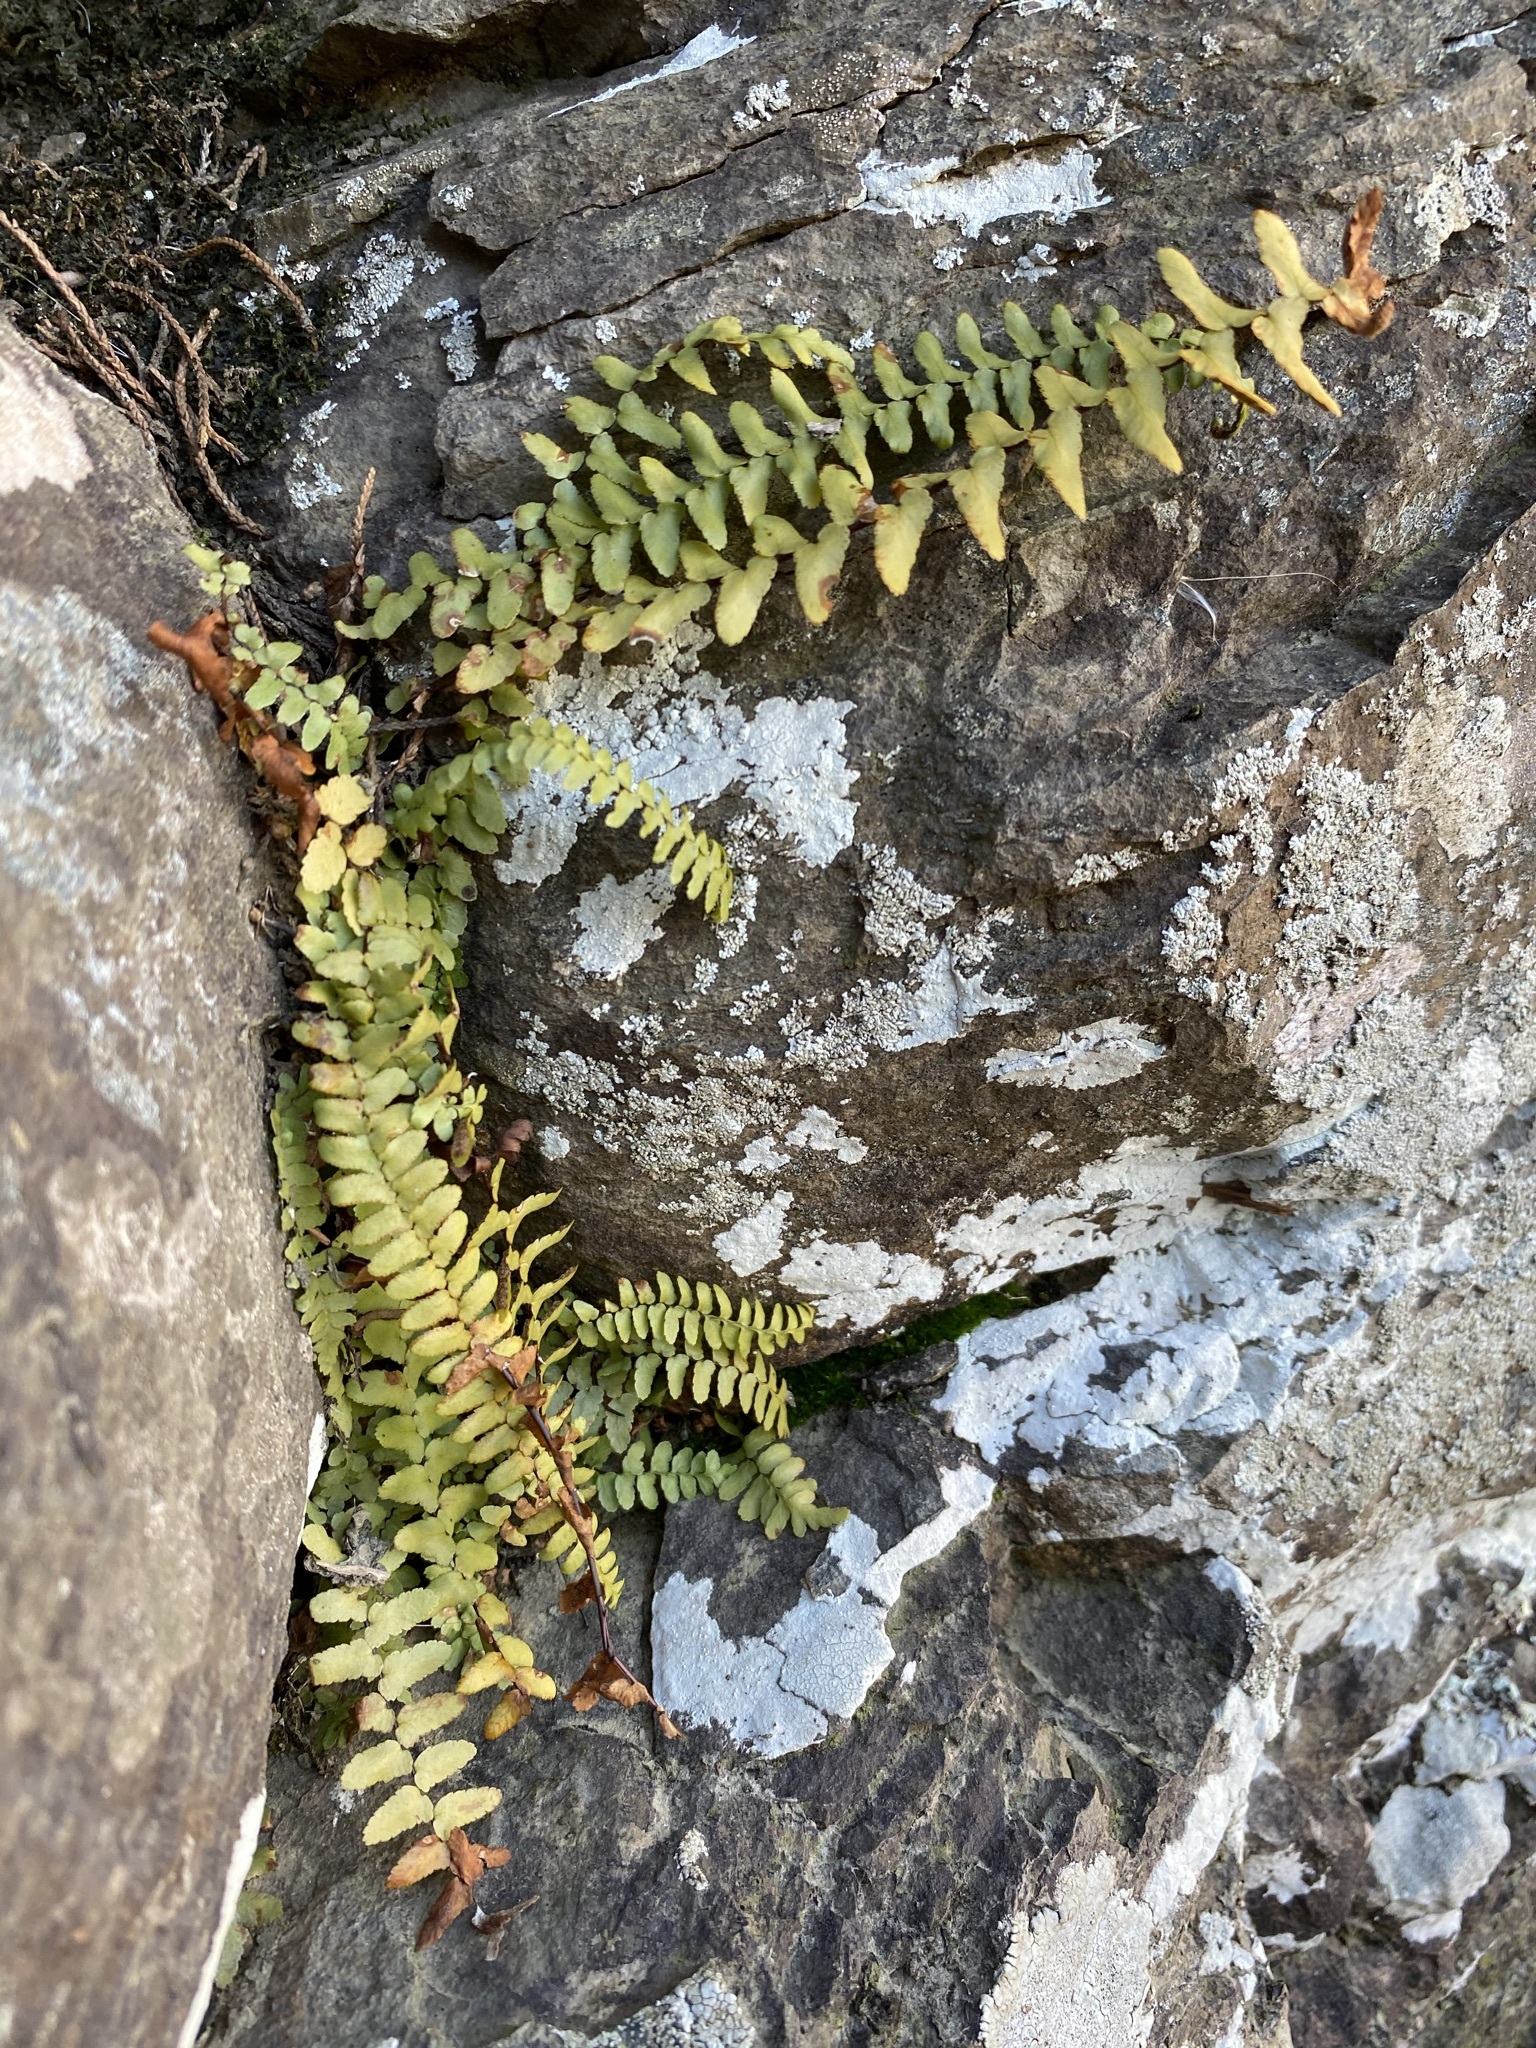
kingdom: Plantae
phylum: Tracheophyta
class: Polypodiopsida
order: Polypodiales
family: Aspleniaceae
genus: Asplenium
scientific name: Asplenium platyneuron
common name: Ebony spleenwort
